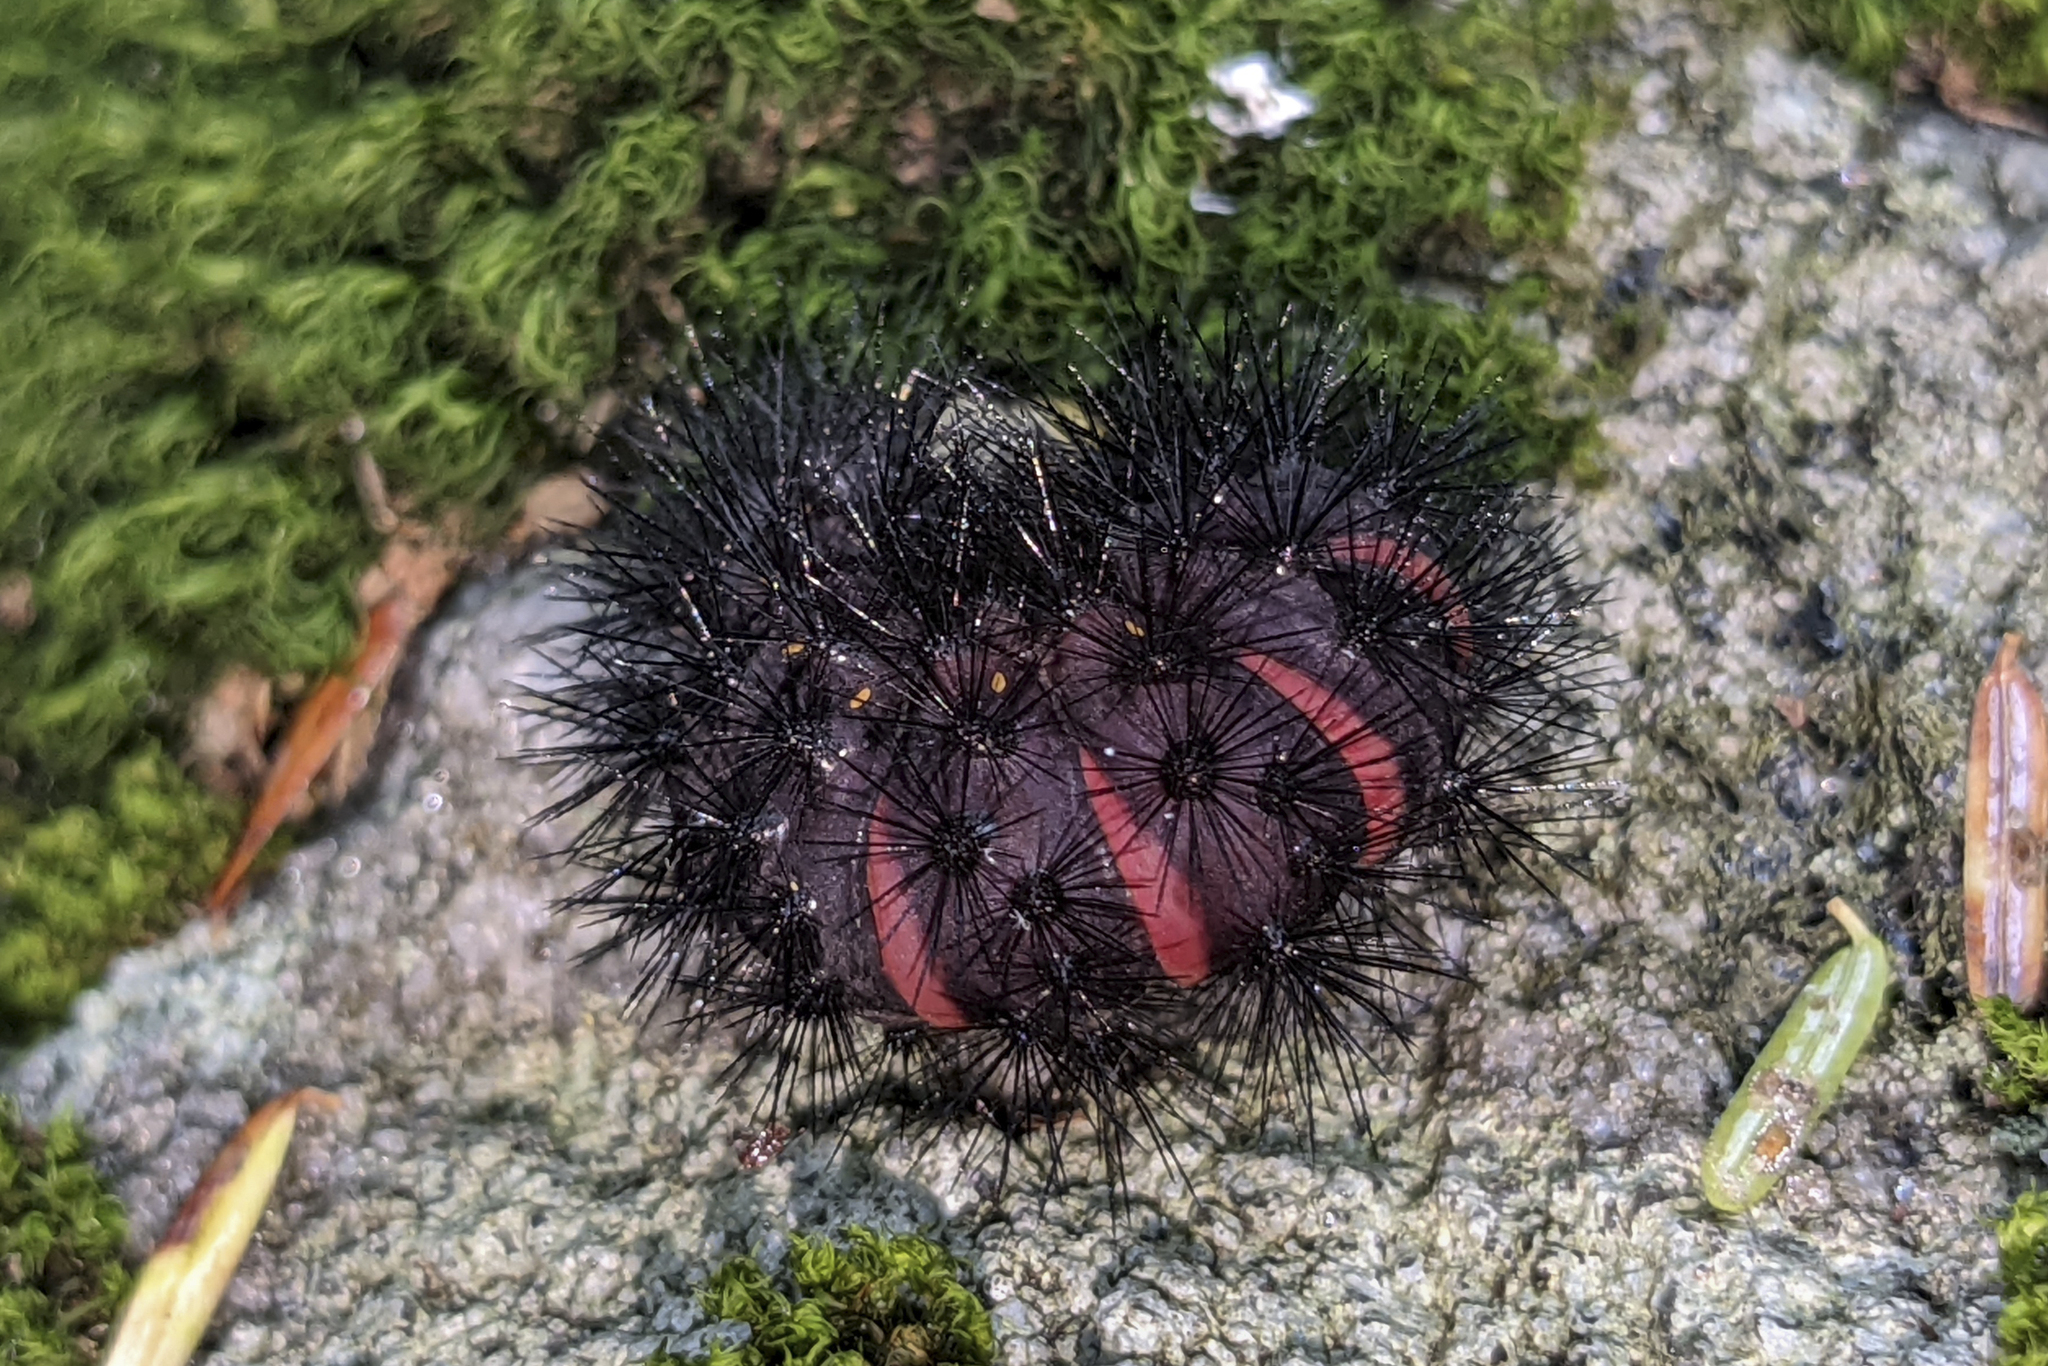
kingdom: Animalia
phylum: Arthropoda
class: Insecta
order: Lepidoptera
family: Erebidae
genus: Hypercompe
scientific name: Hypercompe scribonia
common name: Giant leopard moth
